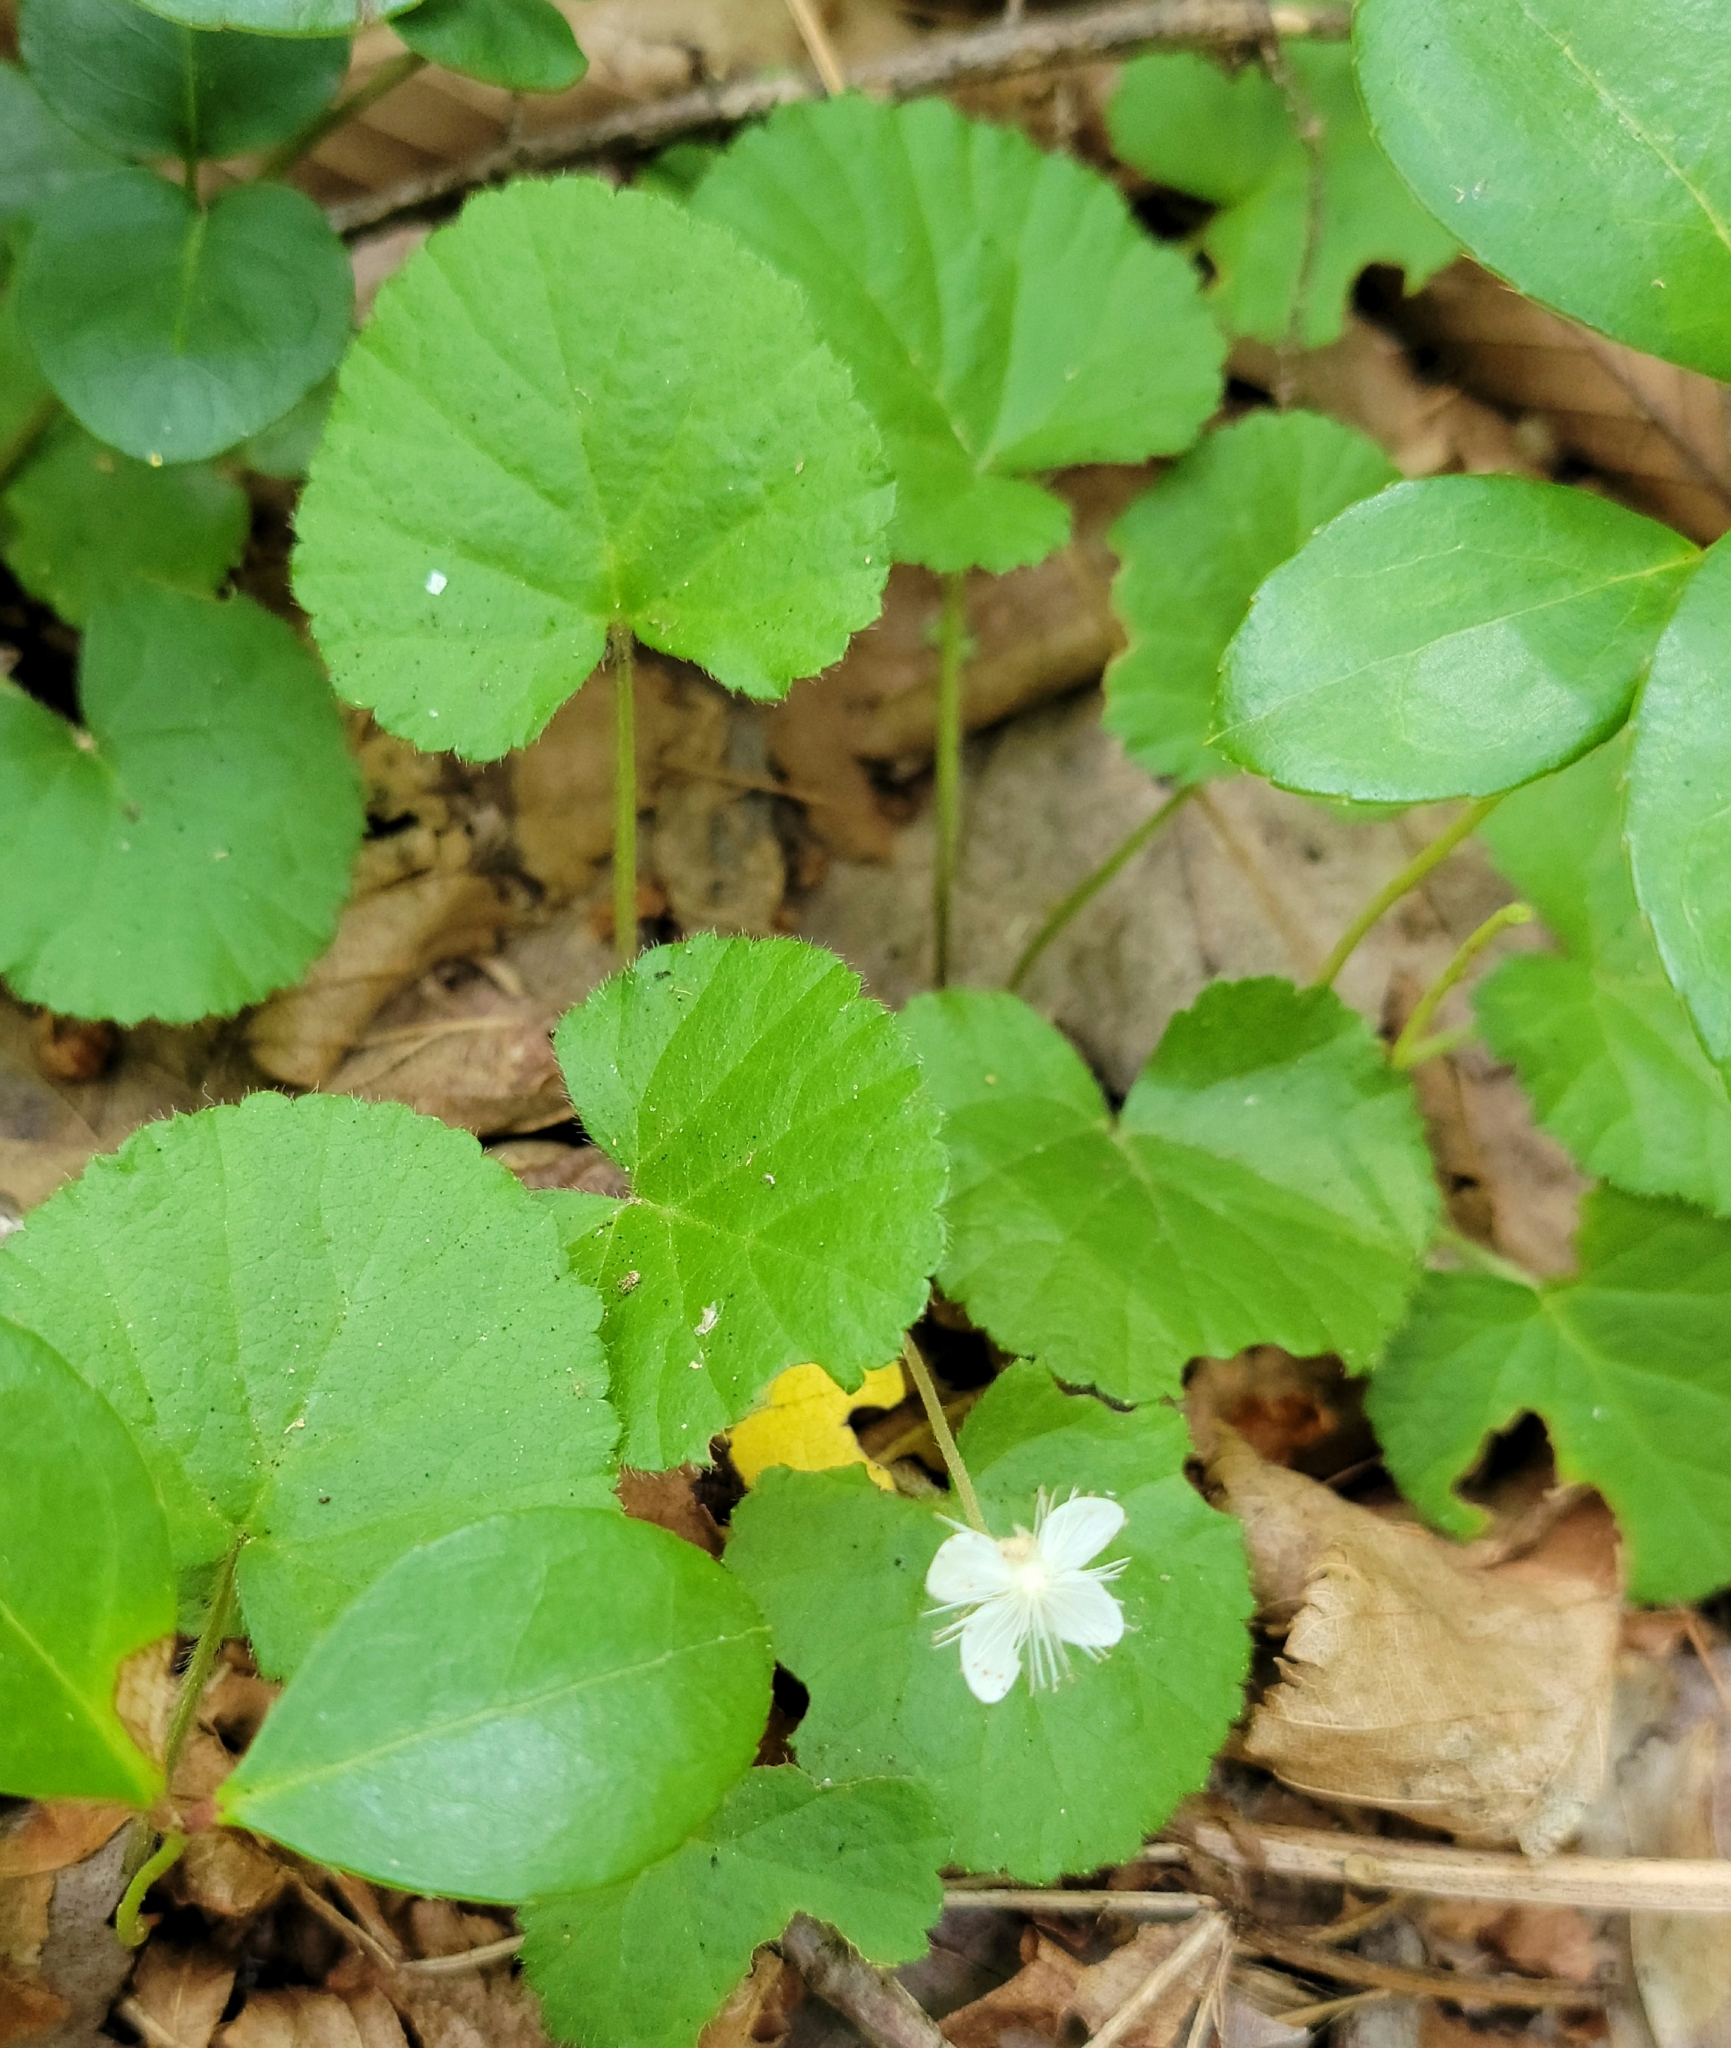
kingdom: Plantae
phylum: Tracheophyta
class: Magnoliopsida
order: Rosales
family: Rosaceae
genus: Dalibarda
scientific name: Dalibarda repens
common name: Dewdrop
